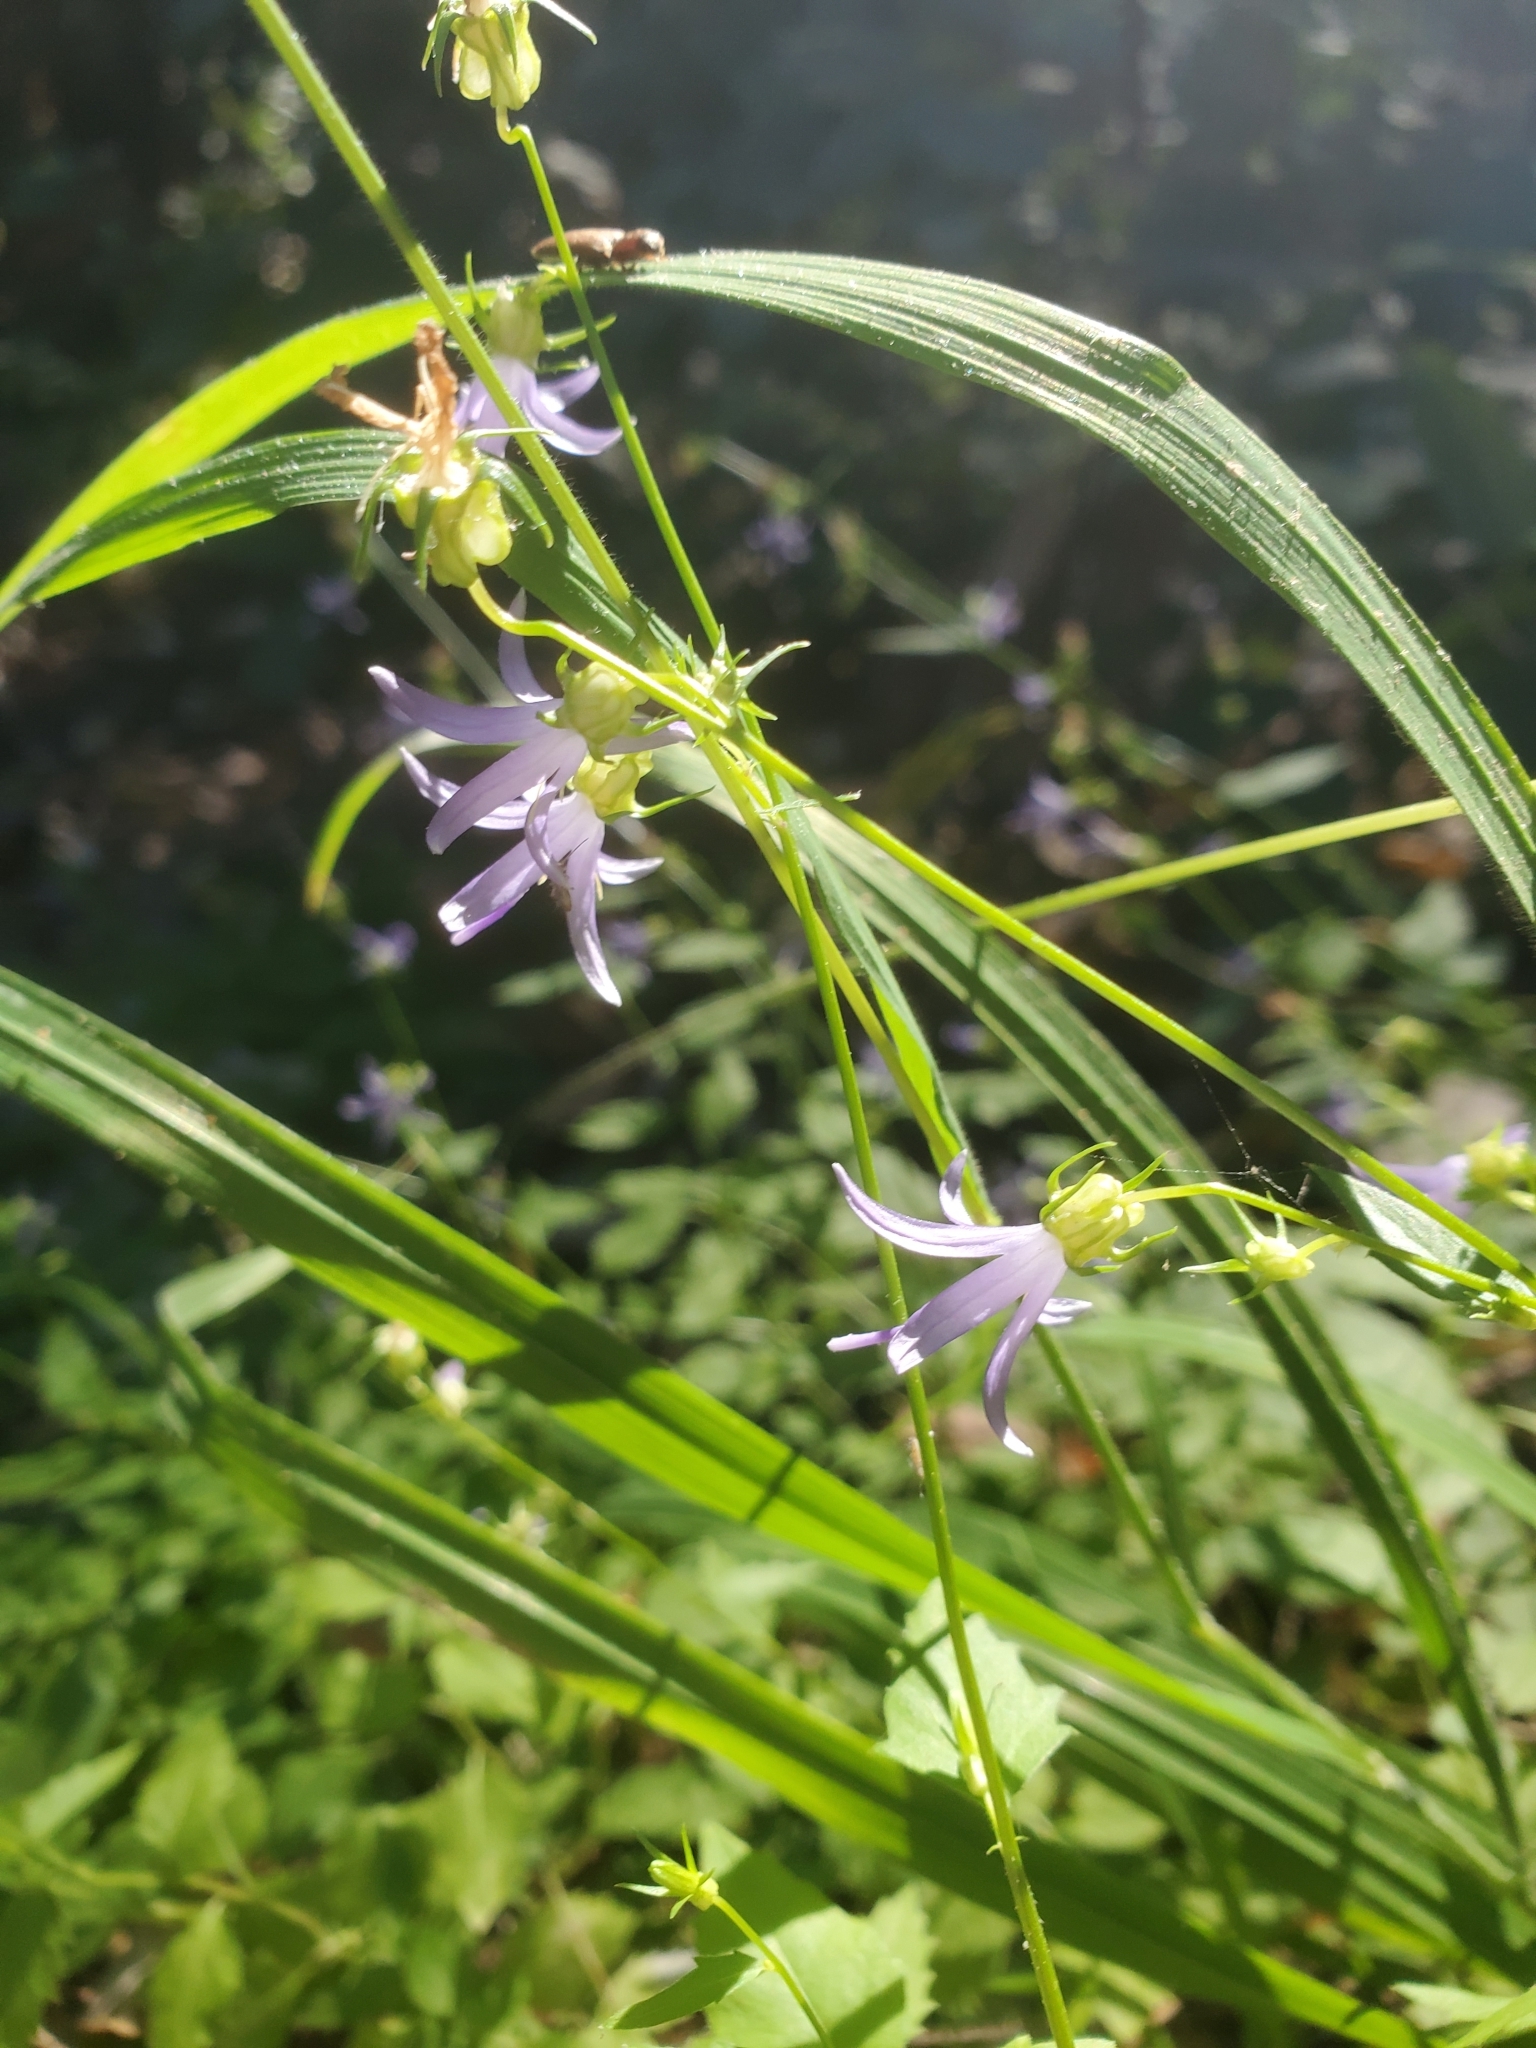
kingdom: Plantae
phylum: Tracheophyta
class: Magnoliopsida
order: Asterales
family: Campanulaceae
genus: Smithiastrum
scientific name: Smithiastrum prenanthoides
